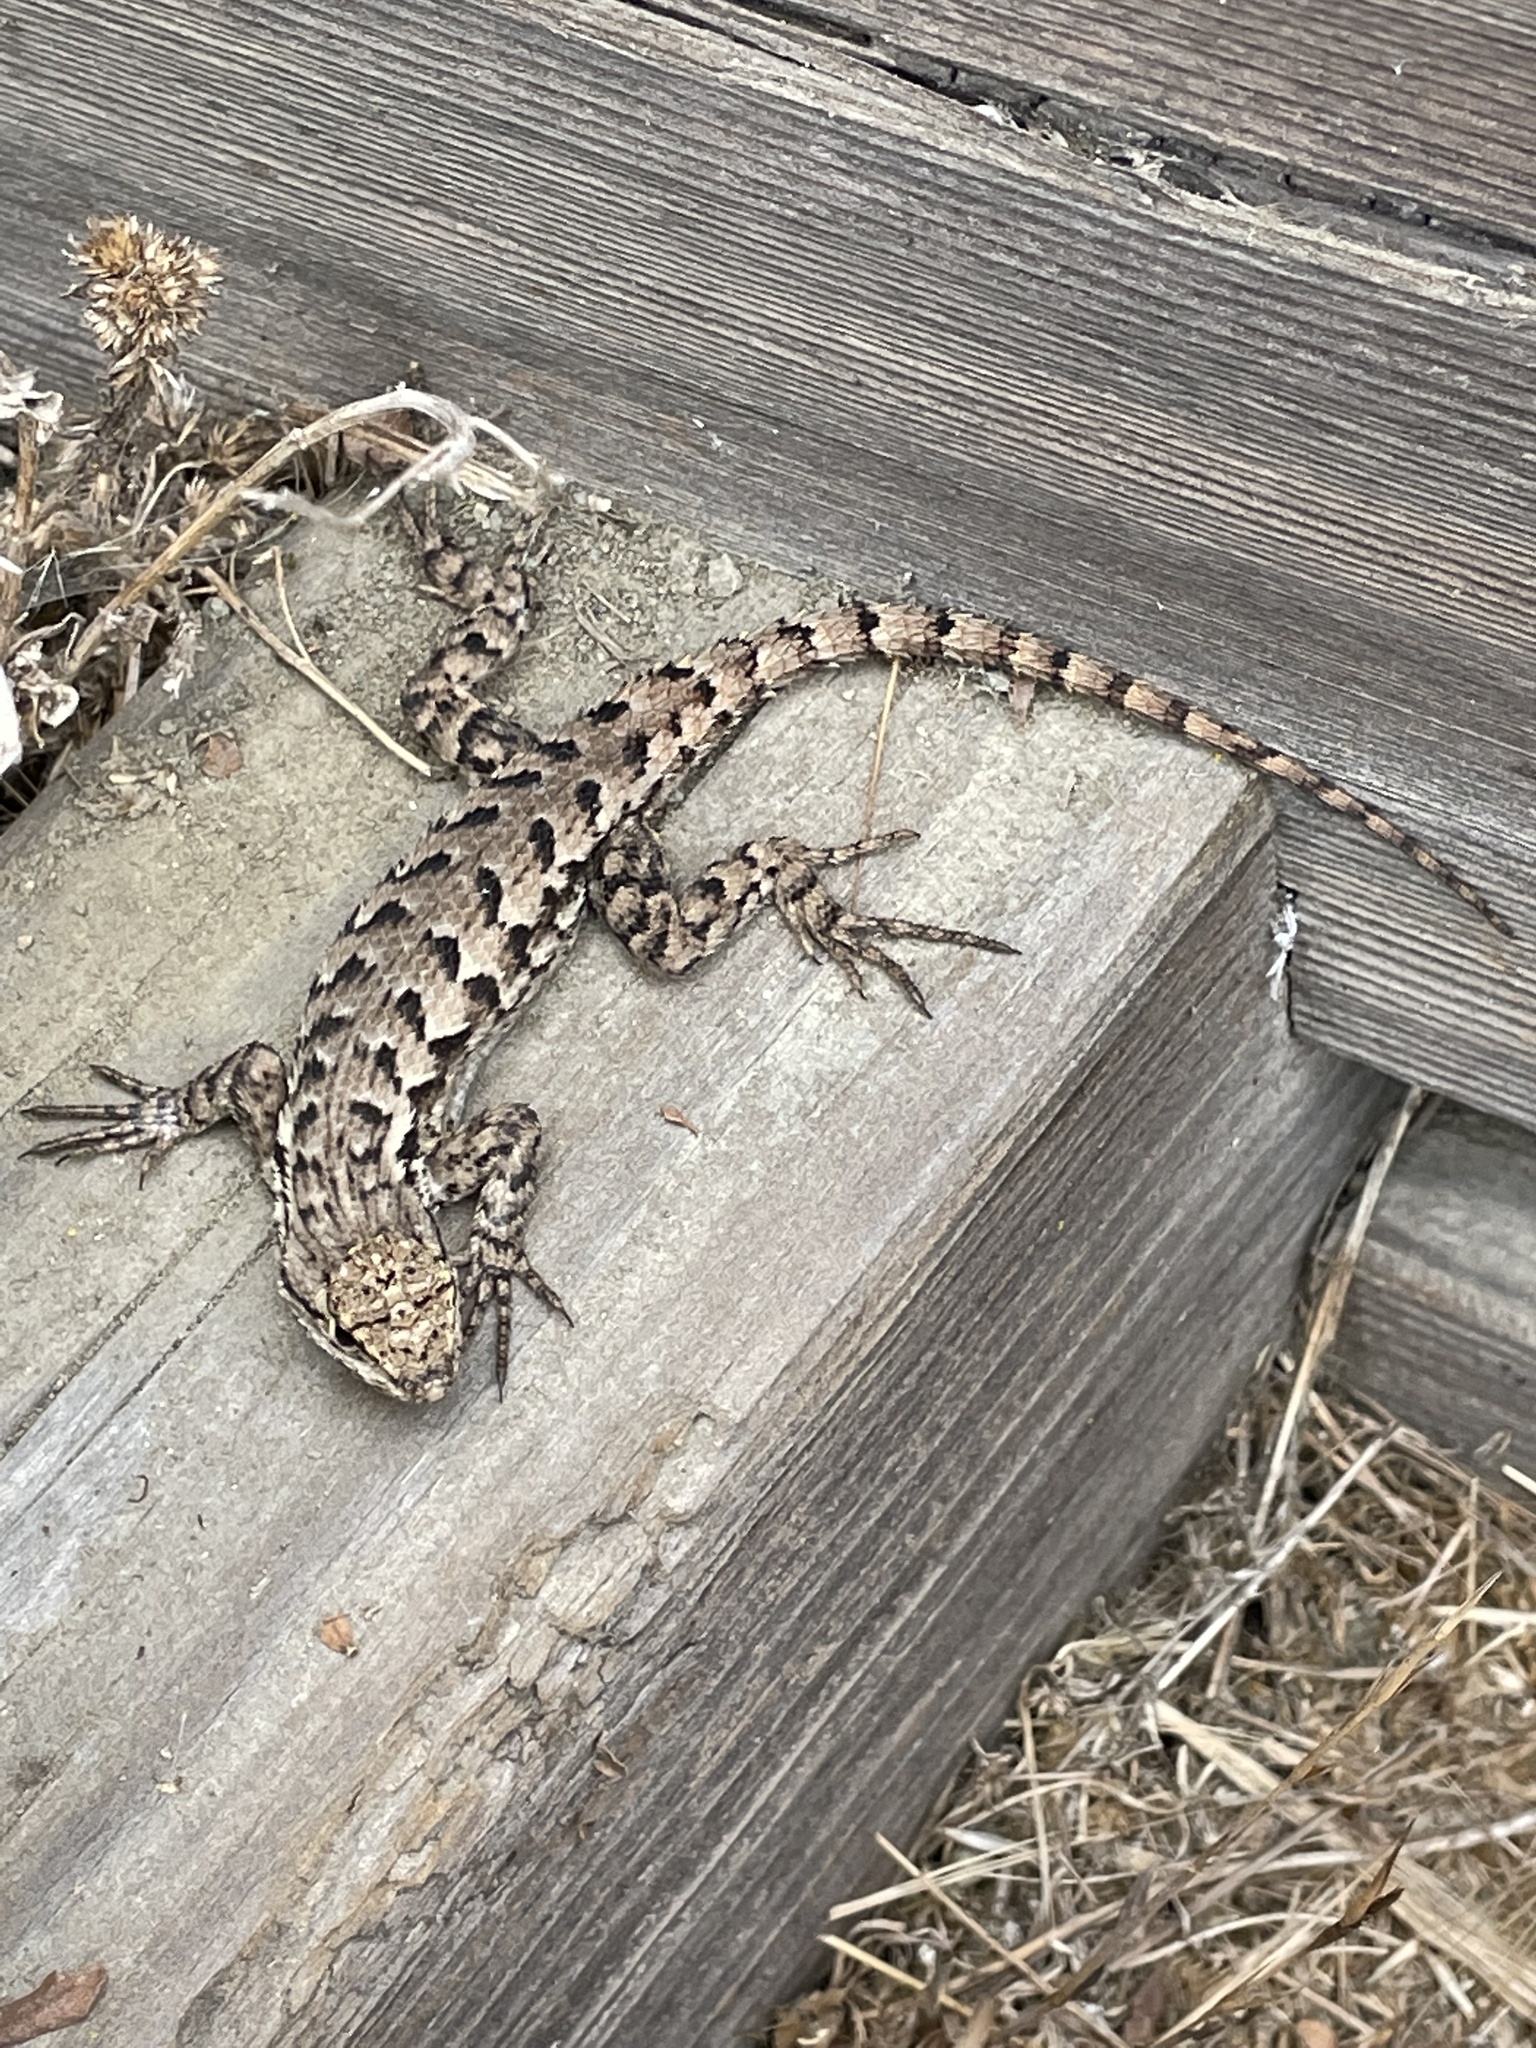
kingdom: Animalia
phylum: Chordata
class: Squamata
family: Phrynosomatidae
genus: Sceloporus
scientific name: Sceloporus occidentalis
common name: Western fence lizard
